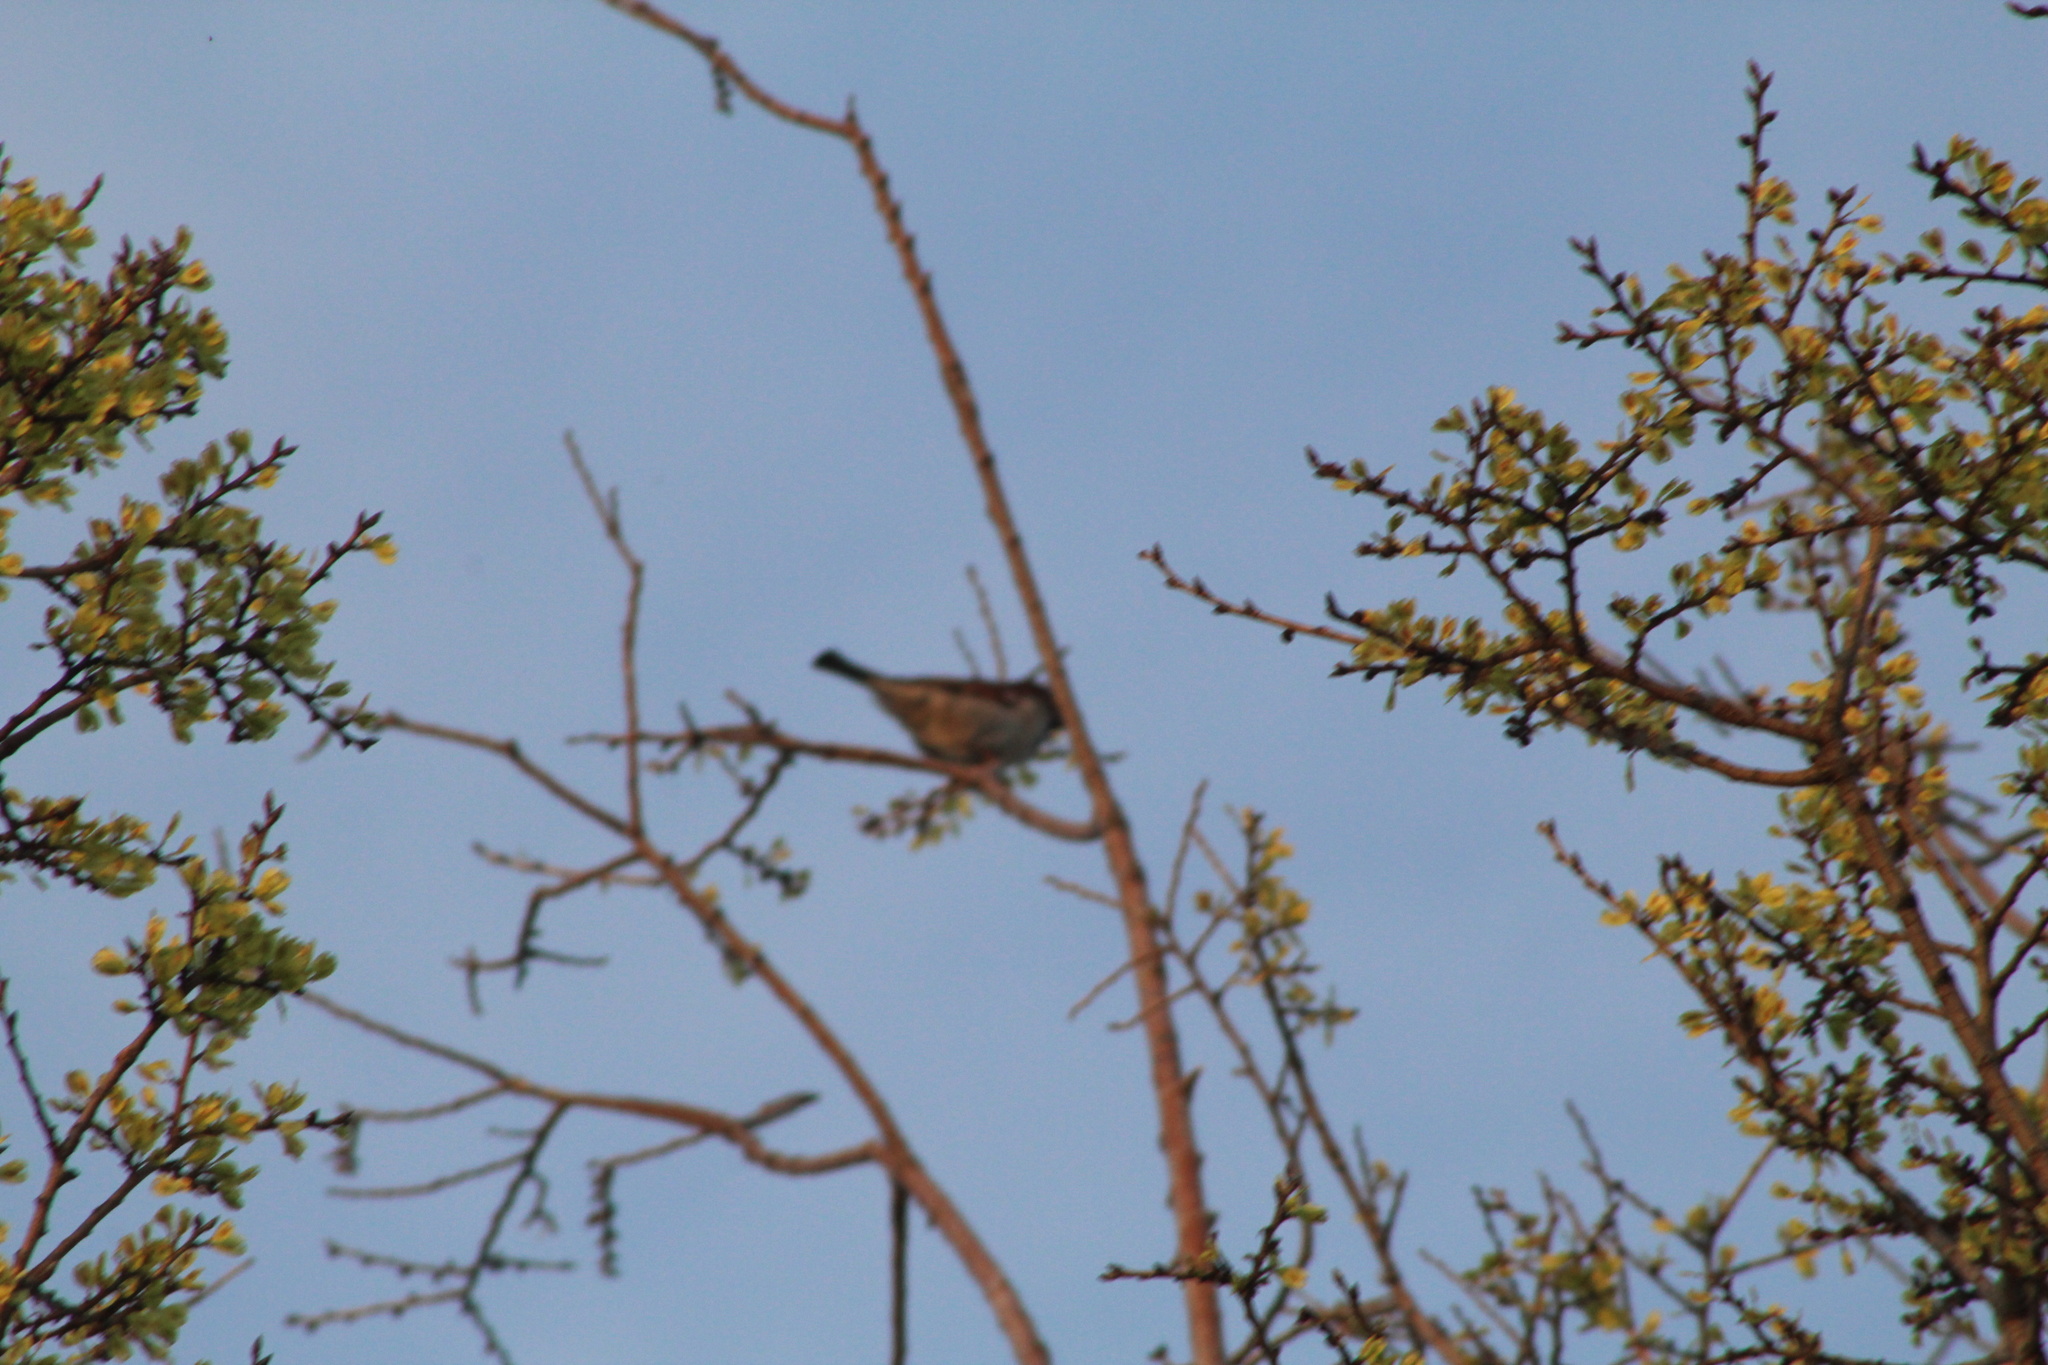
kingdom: Animalia
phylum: Chordata
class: Aves
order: Passeriformes
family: Passeridae
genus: Passer
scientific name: Passer domesticus
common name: House sparrow
